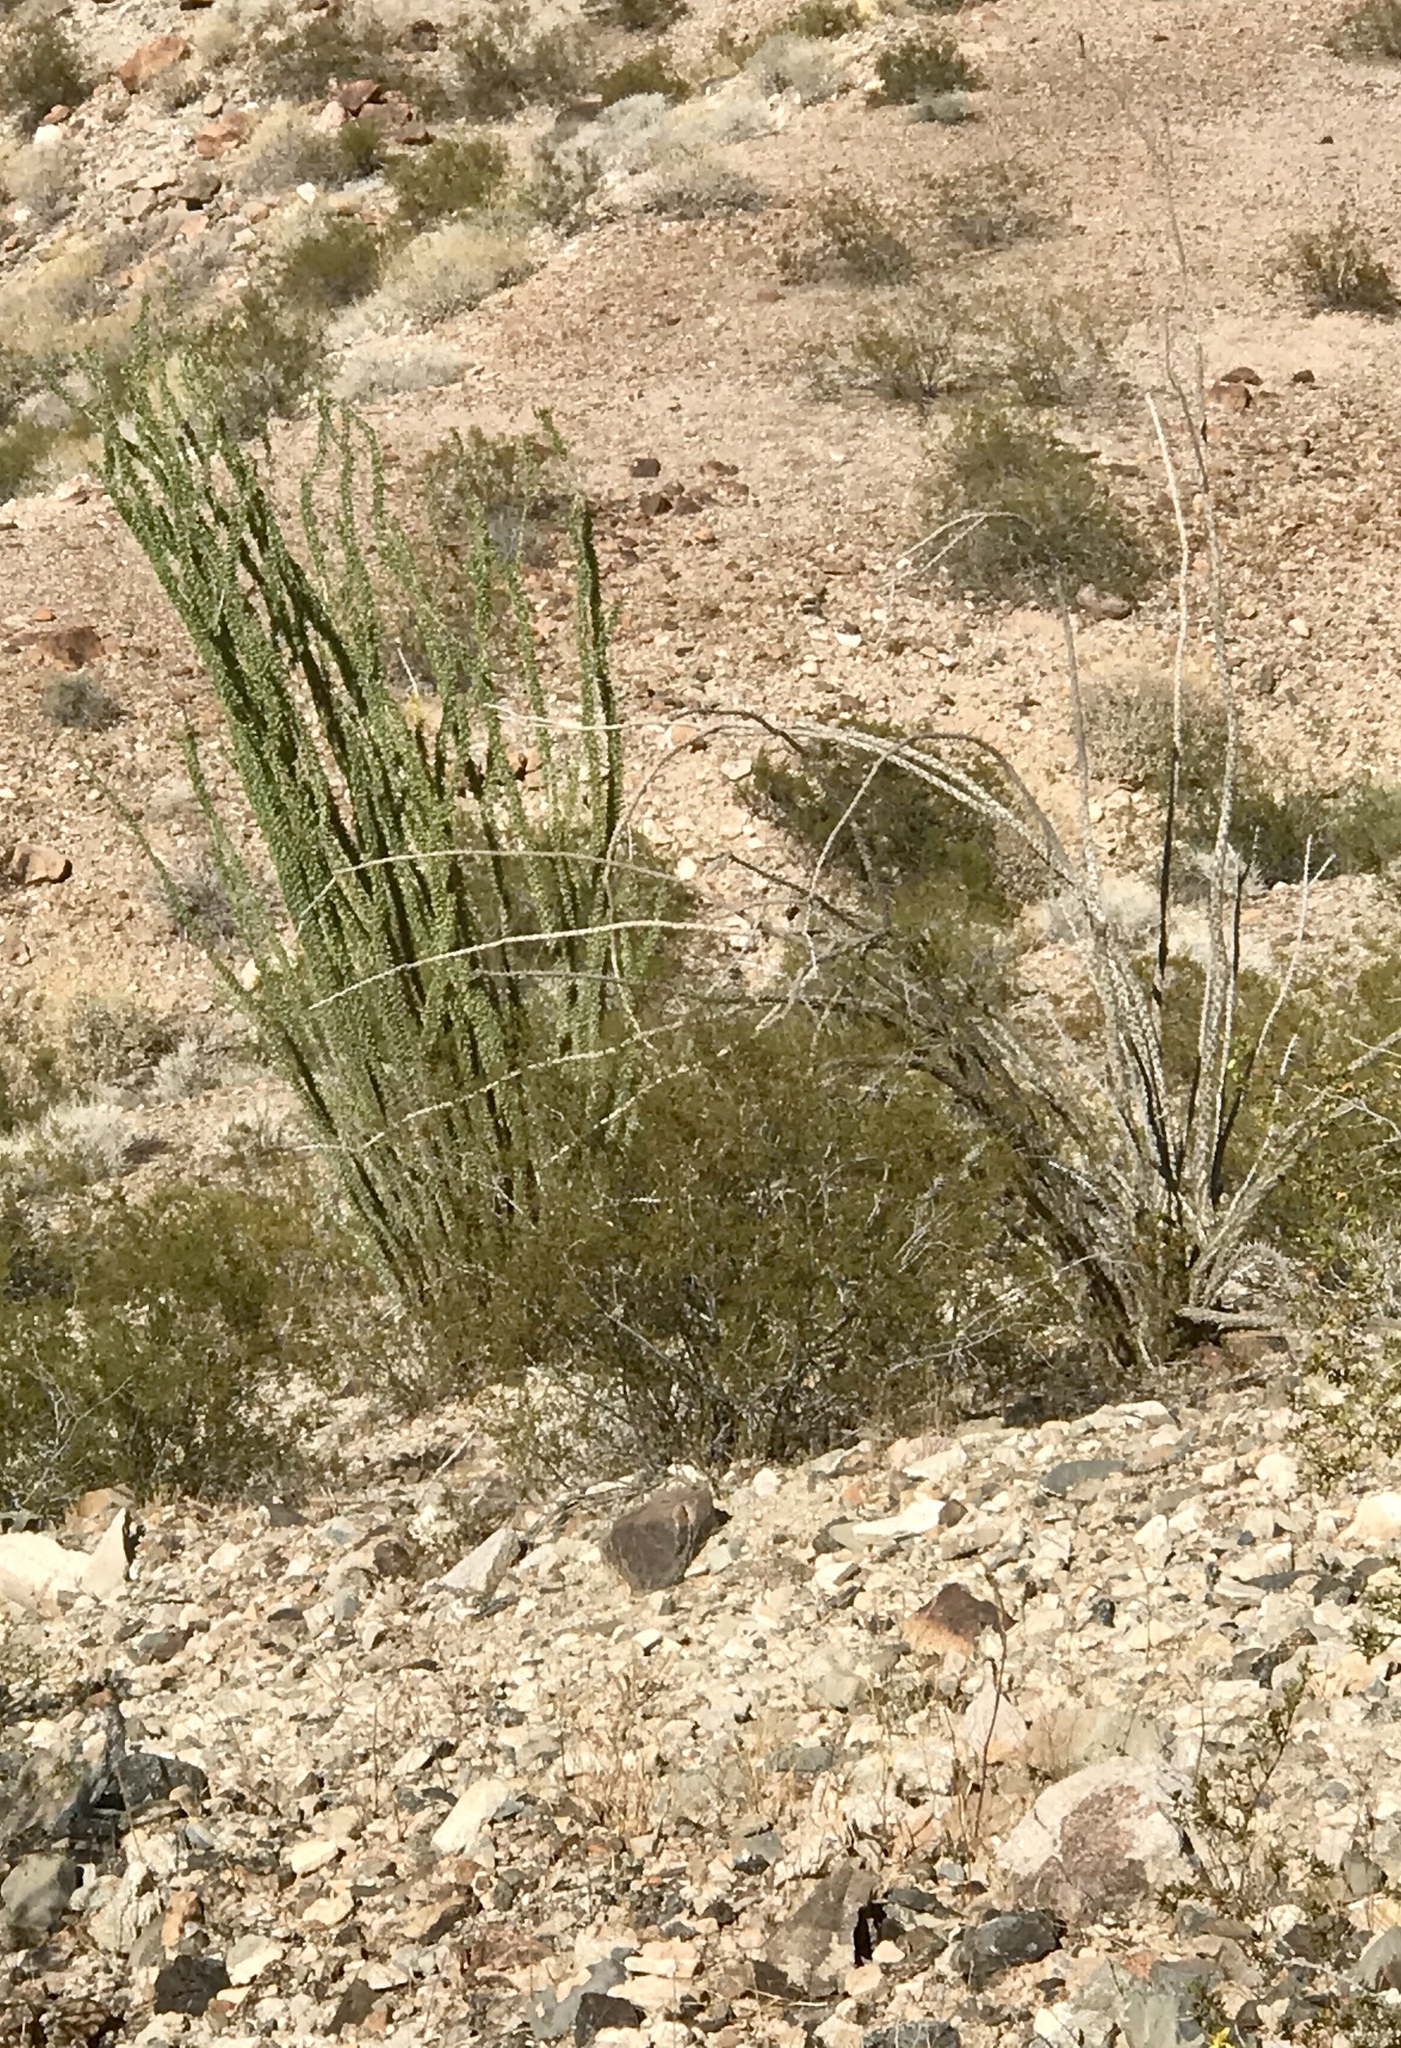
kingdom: Plantae
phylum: Tracheophyta
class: Magnoliopsida
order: Ericales
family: Fouquieriaceae
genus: Fouquieria
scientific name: Fouquieria splendens
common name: Vine-cactus
